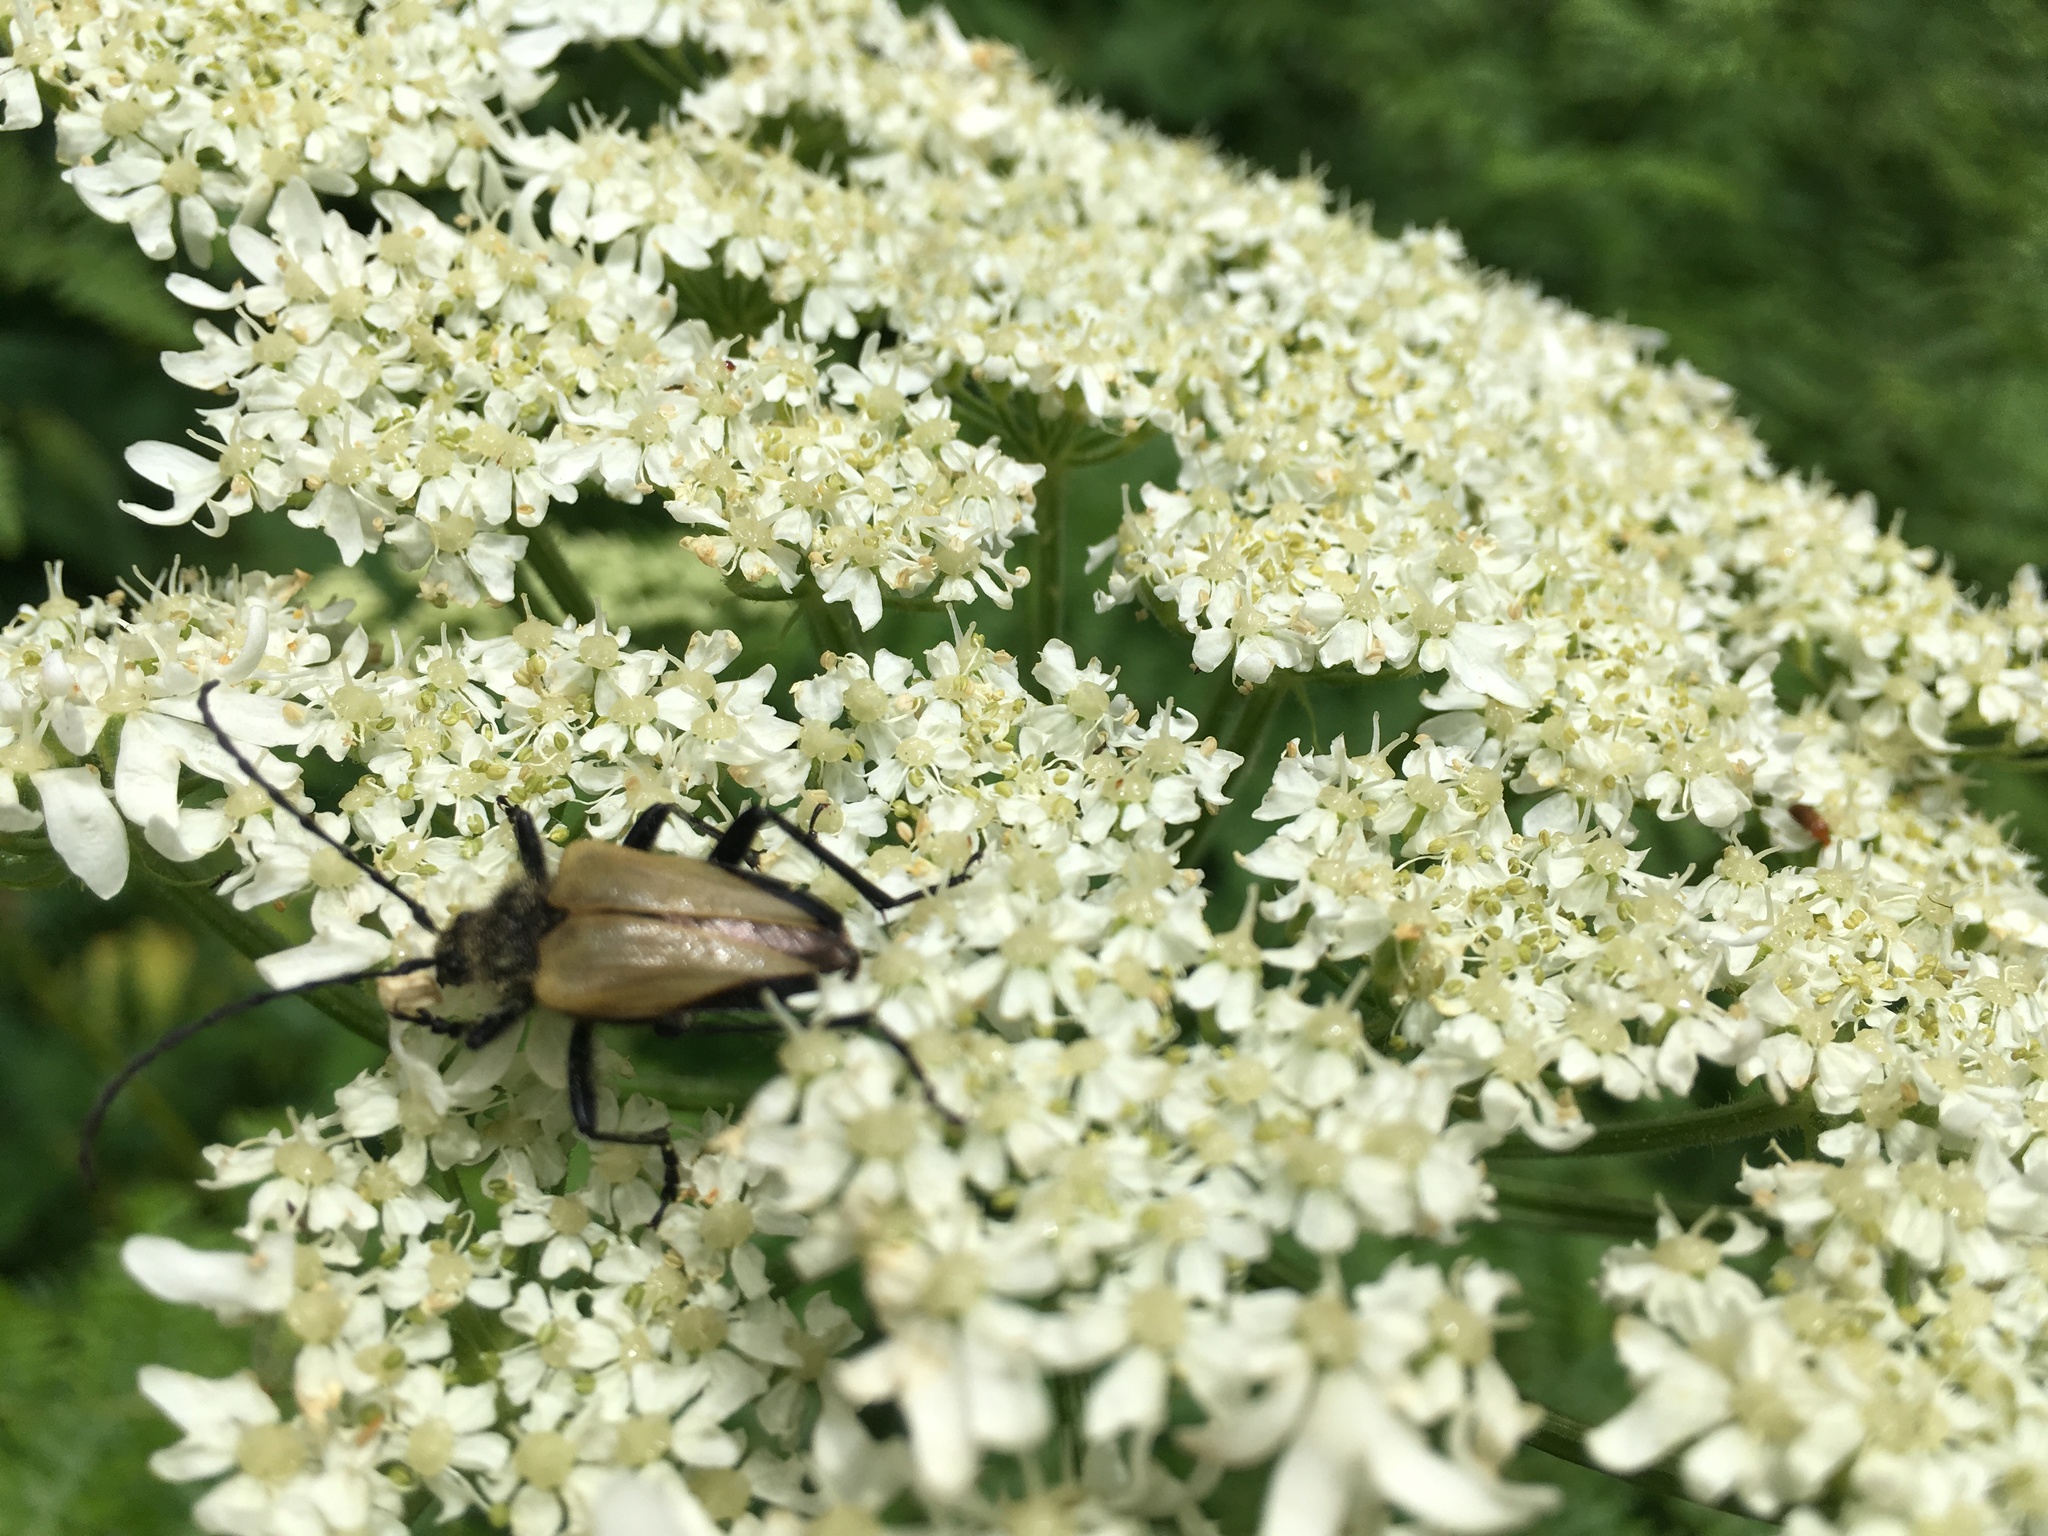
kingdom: Animalia
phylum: Arthropoda
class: Insecta
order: Coleoptera
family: Cerambycidae
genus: Pachyta
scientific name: Pachyta armata
